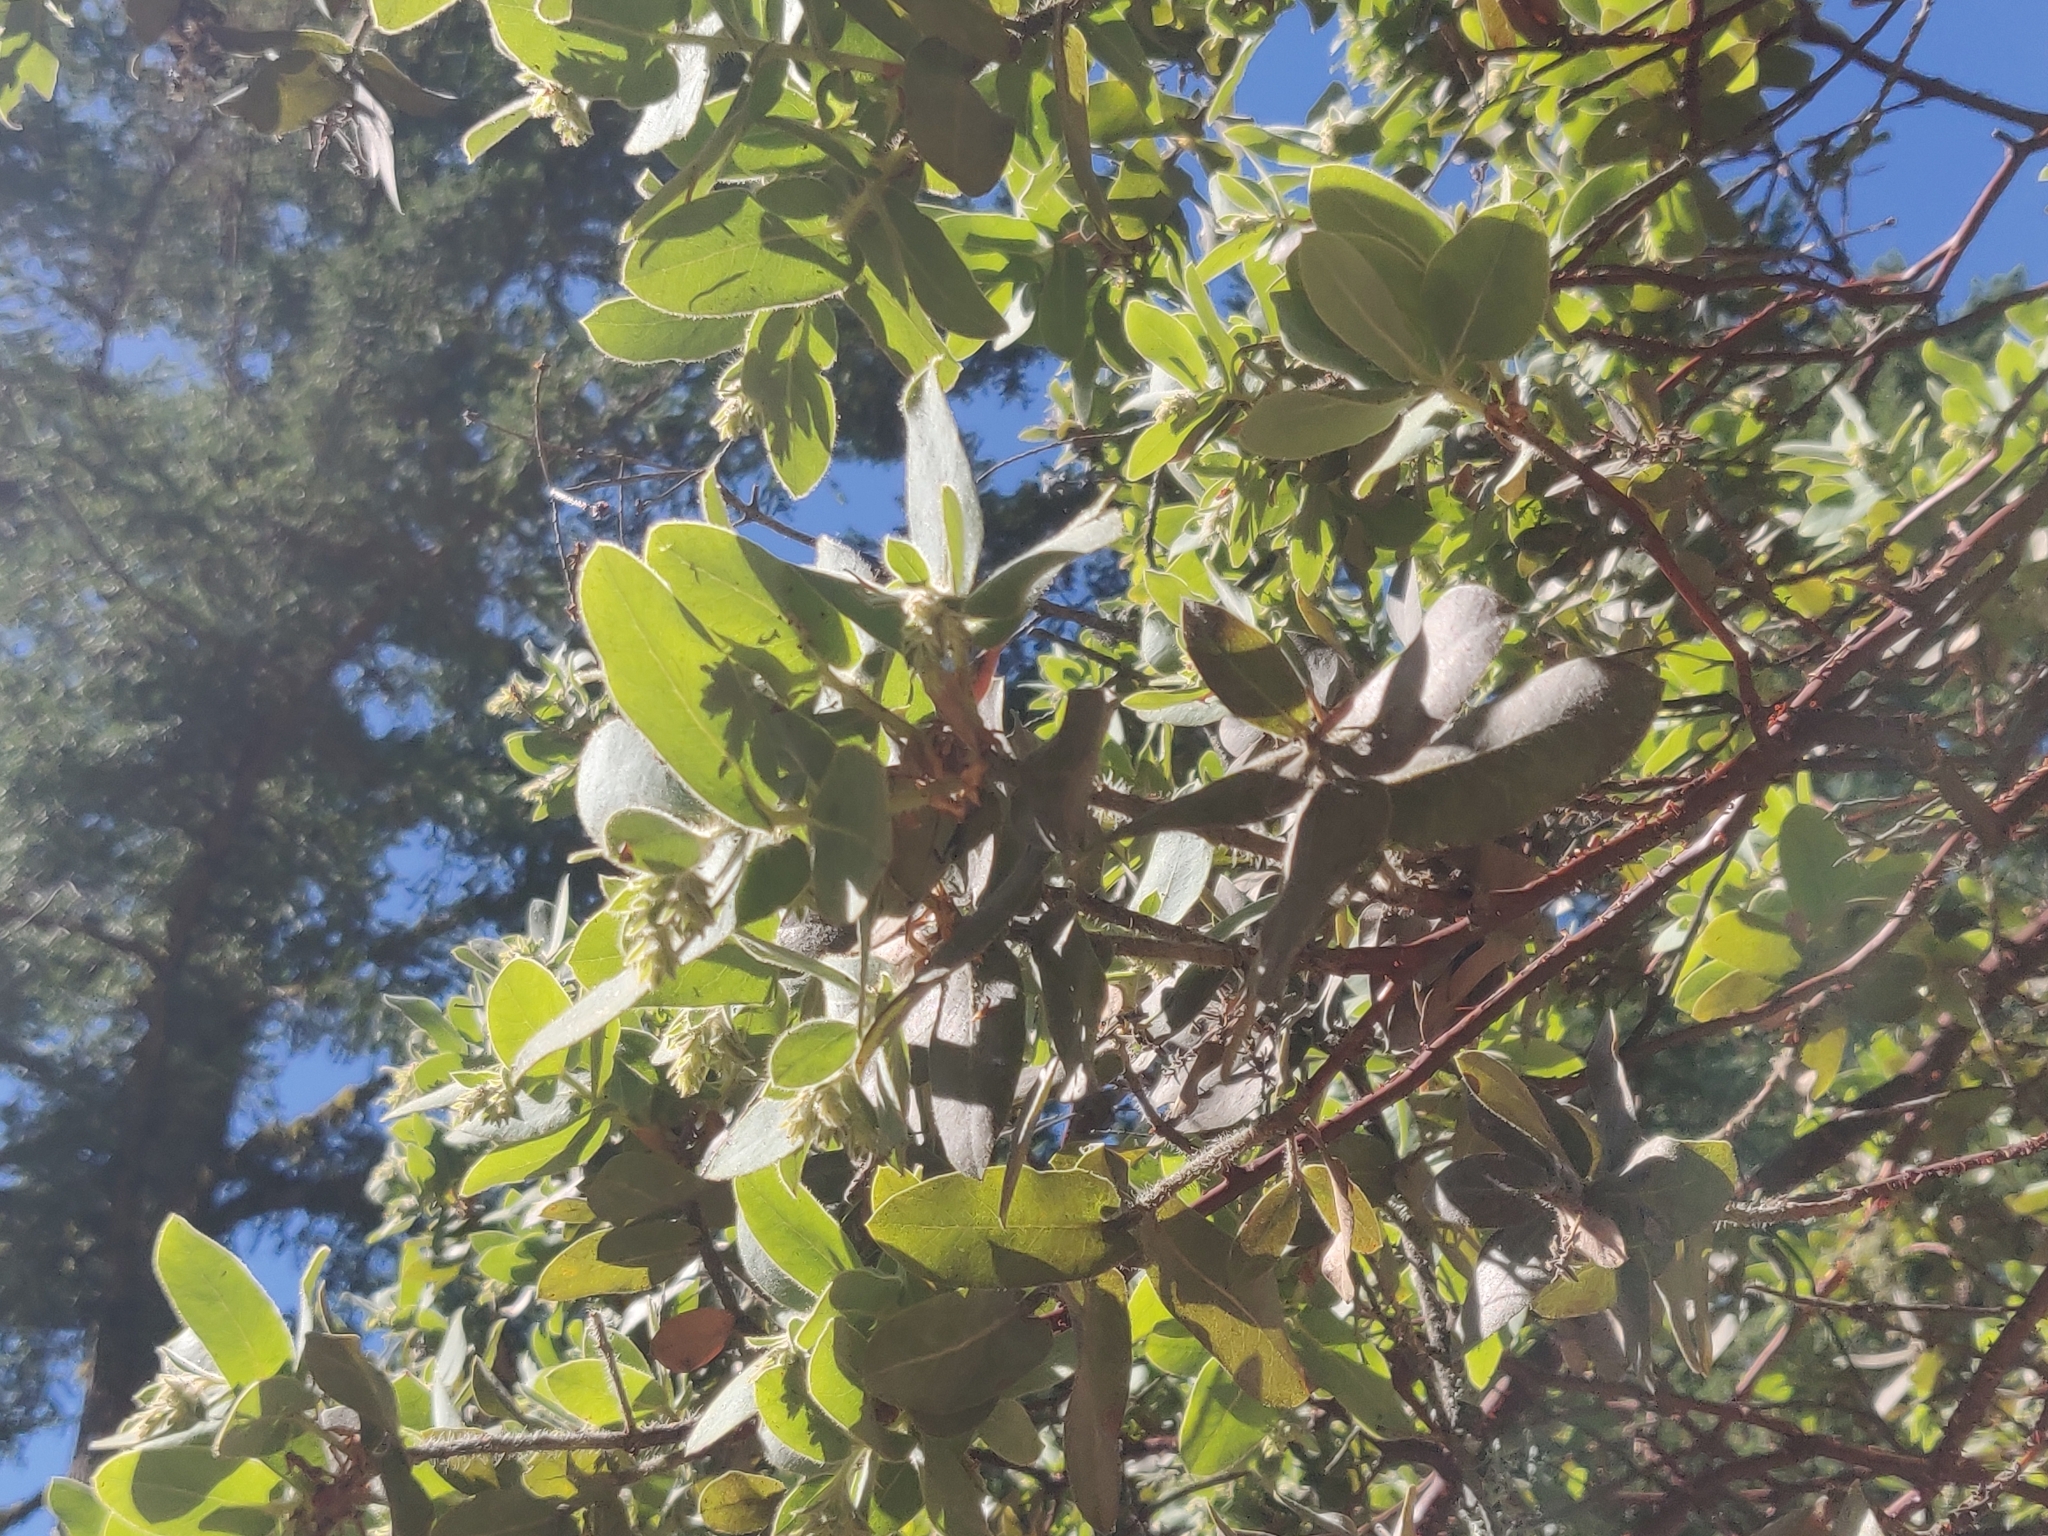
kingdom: Plantae
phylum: Tracheophyta
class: Magnoliopsida
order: Ericales
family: Ericaceae
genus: Arctostaphylos
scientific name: Arctostaphylos regismontana
